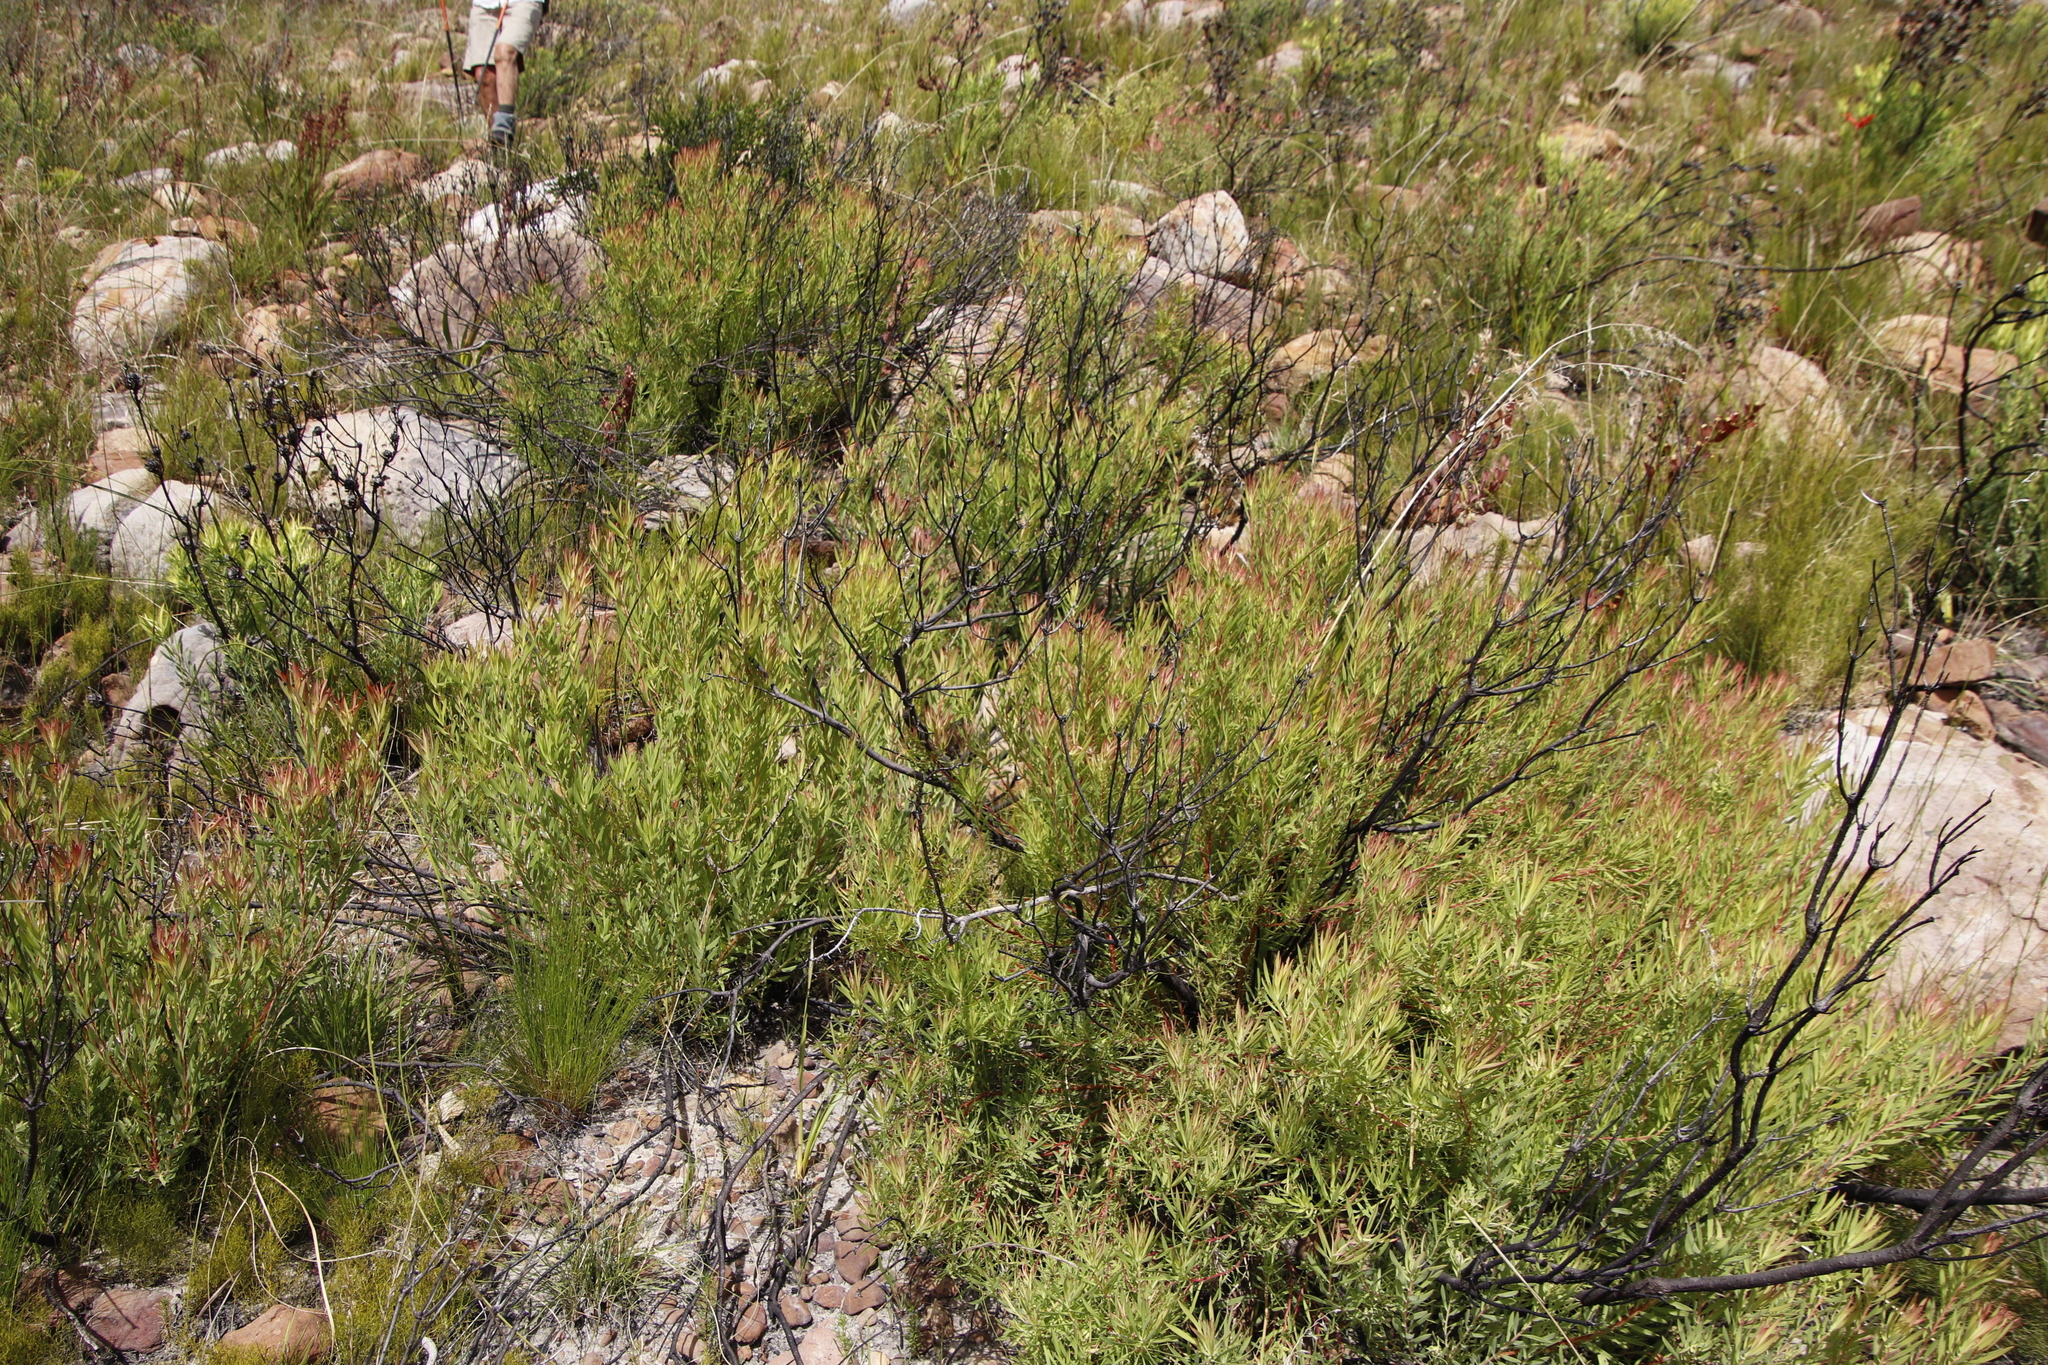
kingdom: Plantae
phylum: Tracheophyta
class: Magnoliopsida
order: Proteales
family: Proteaceae
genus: Leucadendron
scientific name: Leucadendron salignum
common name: Common sunshine conebush
